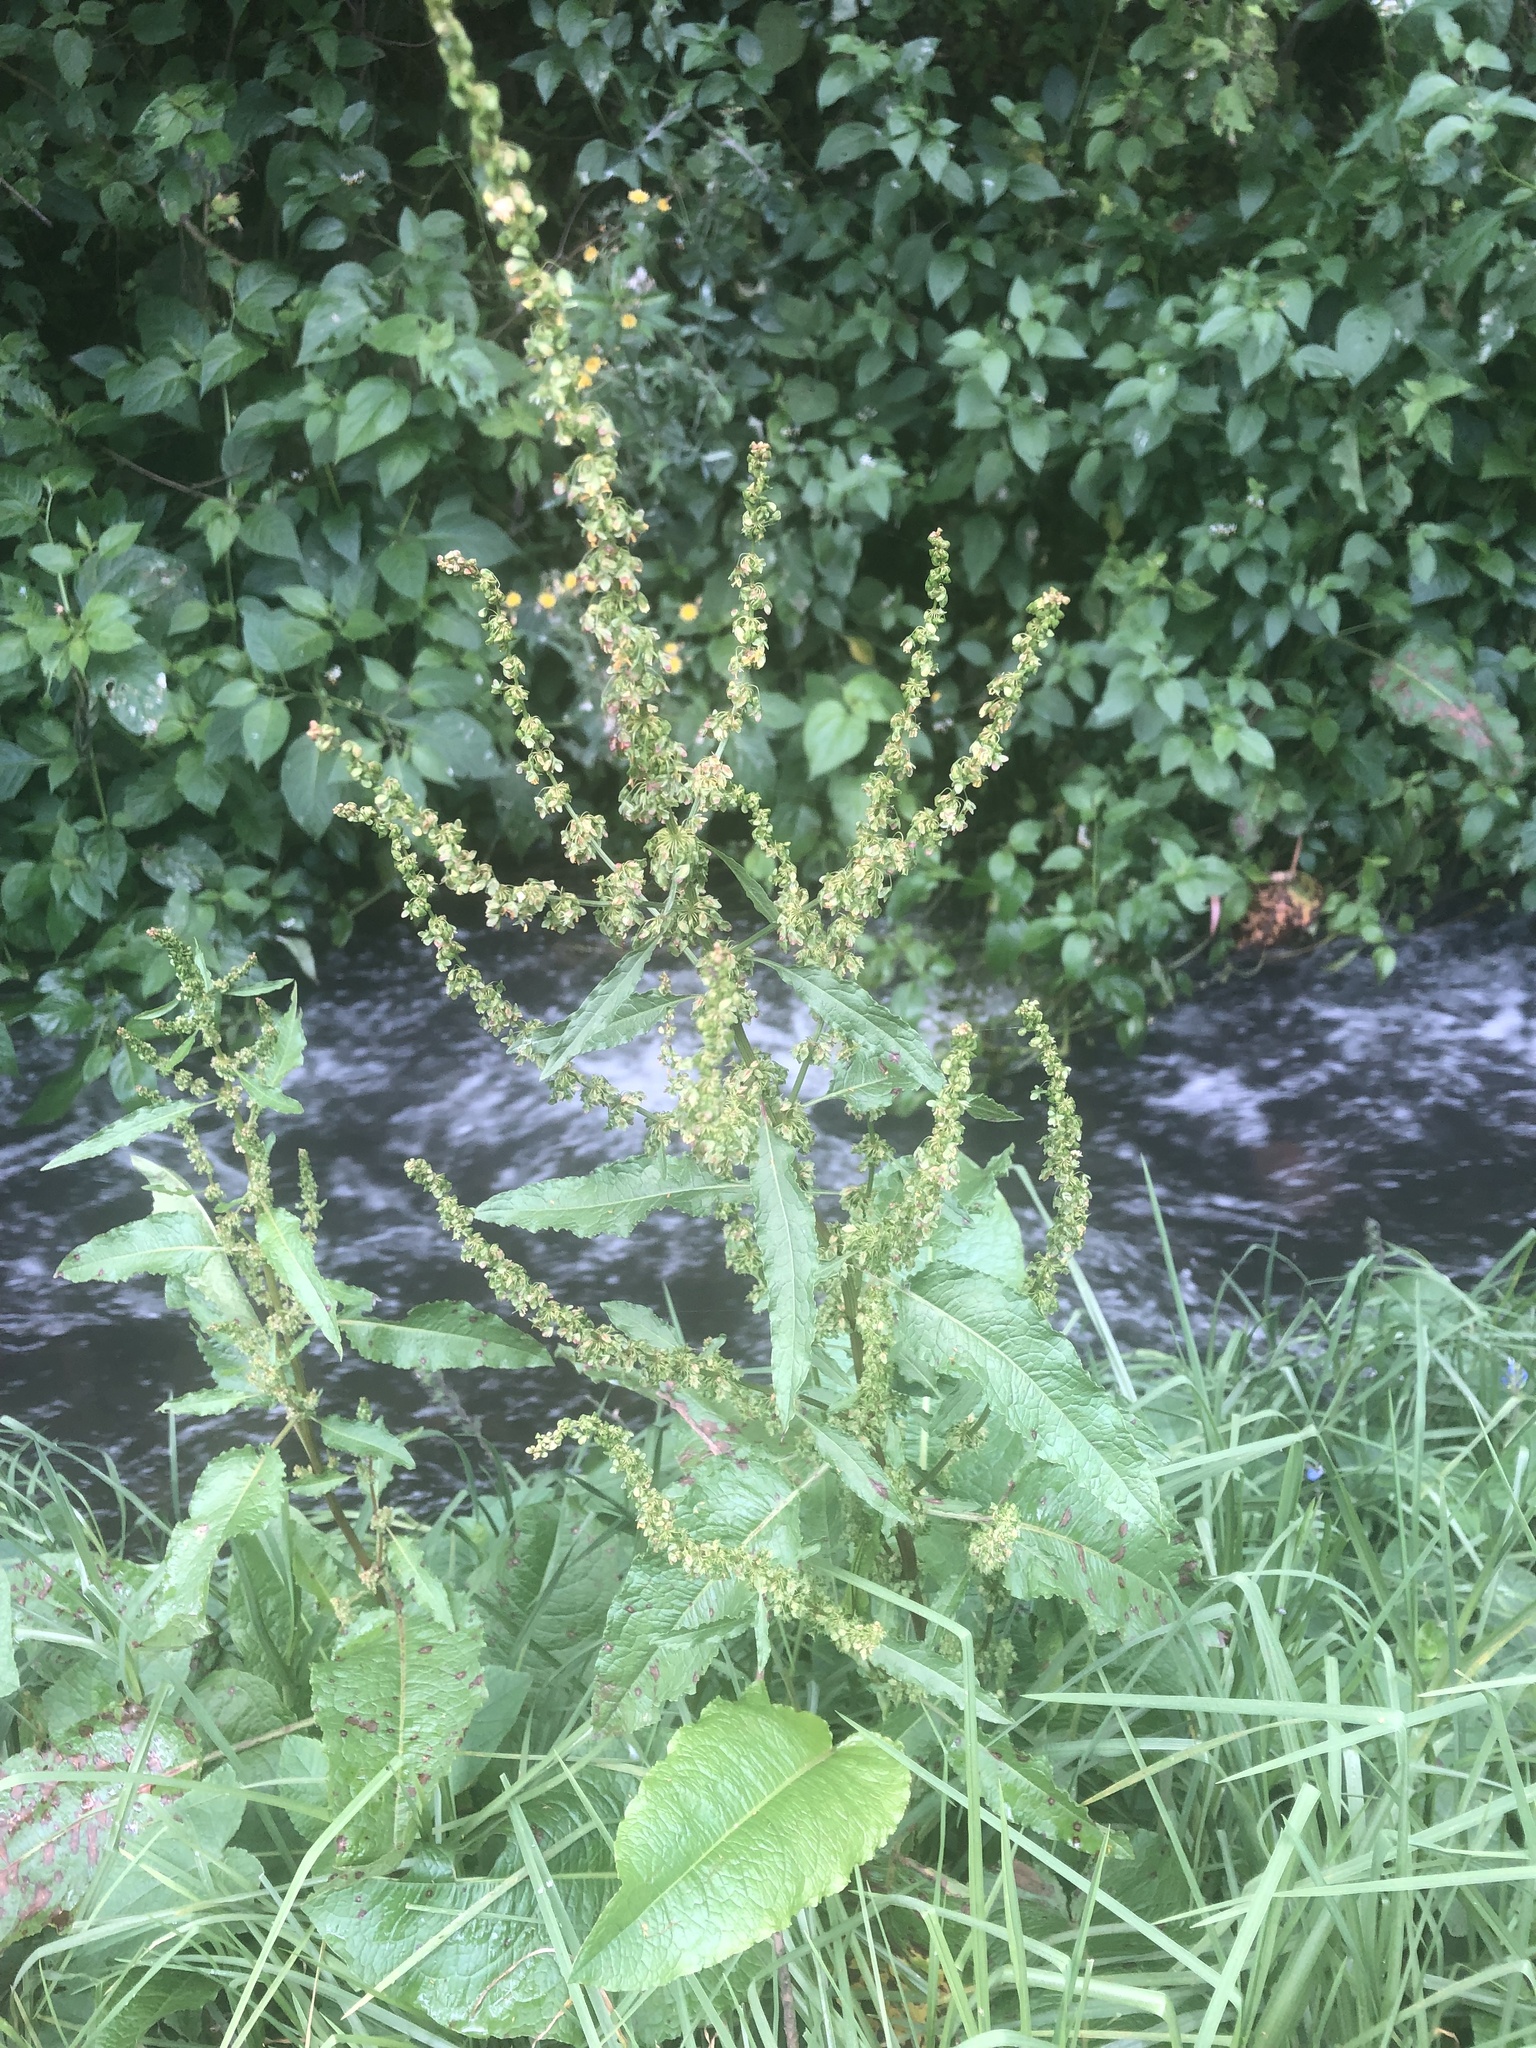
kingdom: Plantae
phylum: Tracheophyta
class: Magnoliopsida
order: Caryophyllales
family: Polygonaceae
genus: Rumex
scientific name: Rumex obtusifolius
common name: Bitter dock
